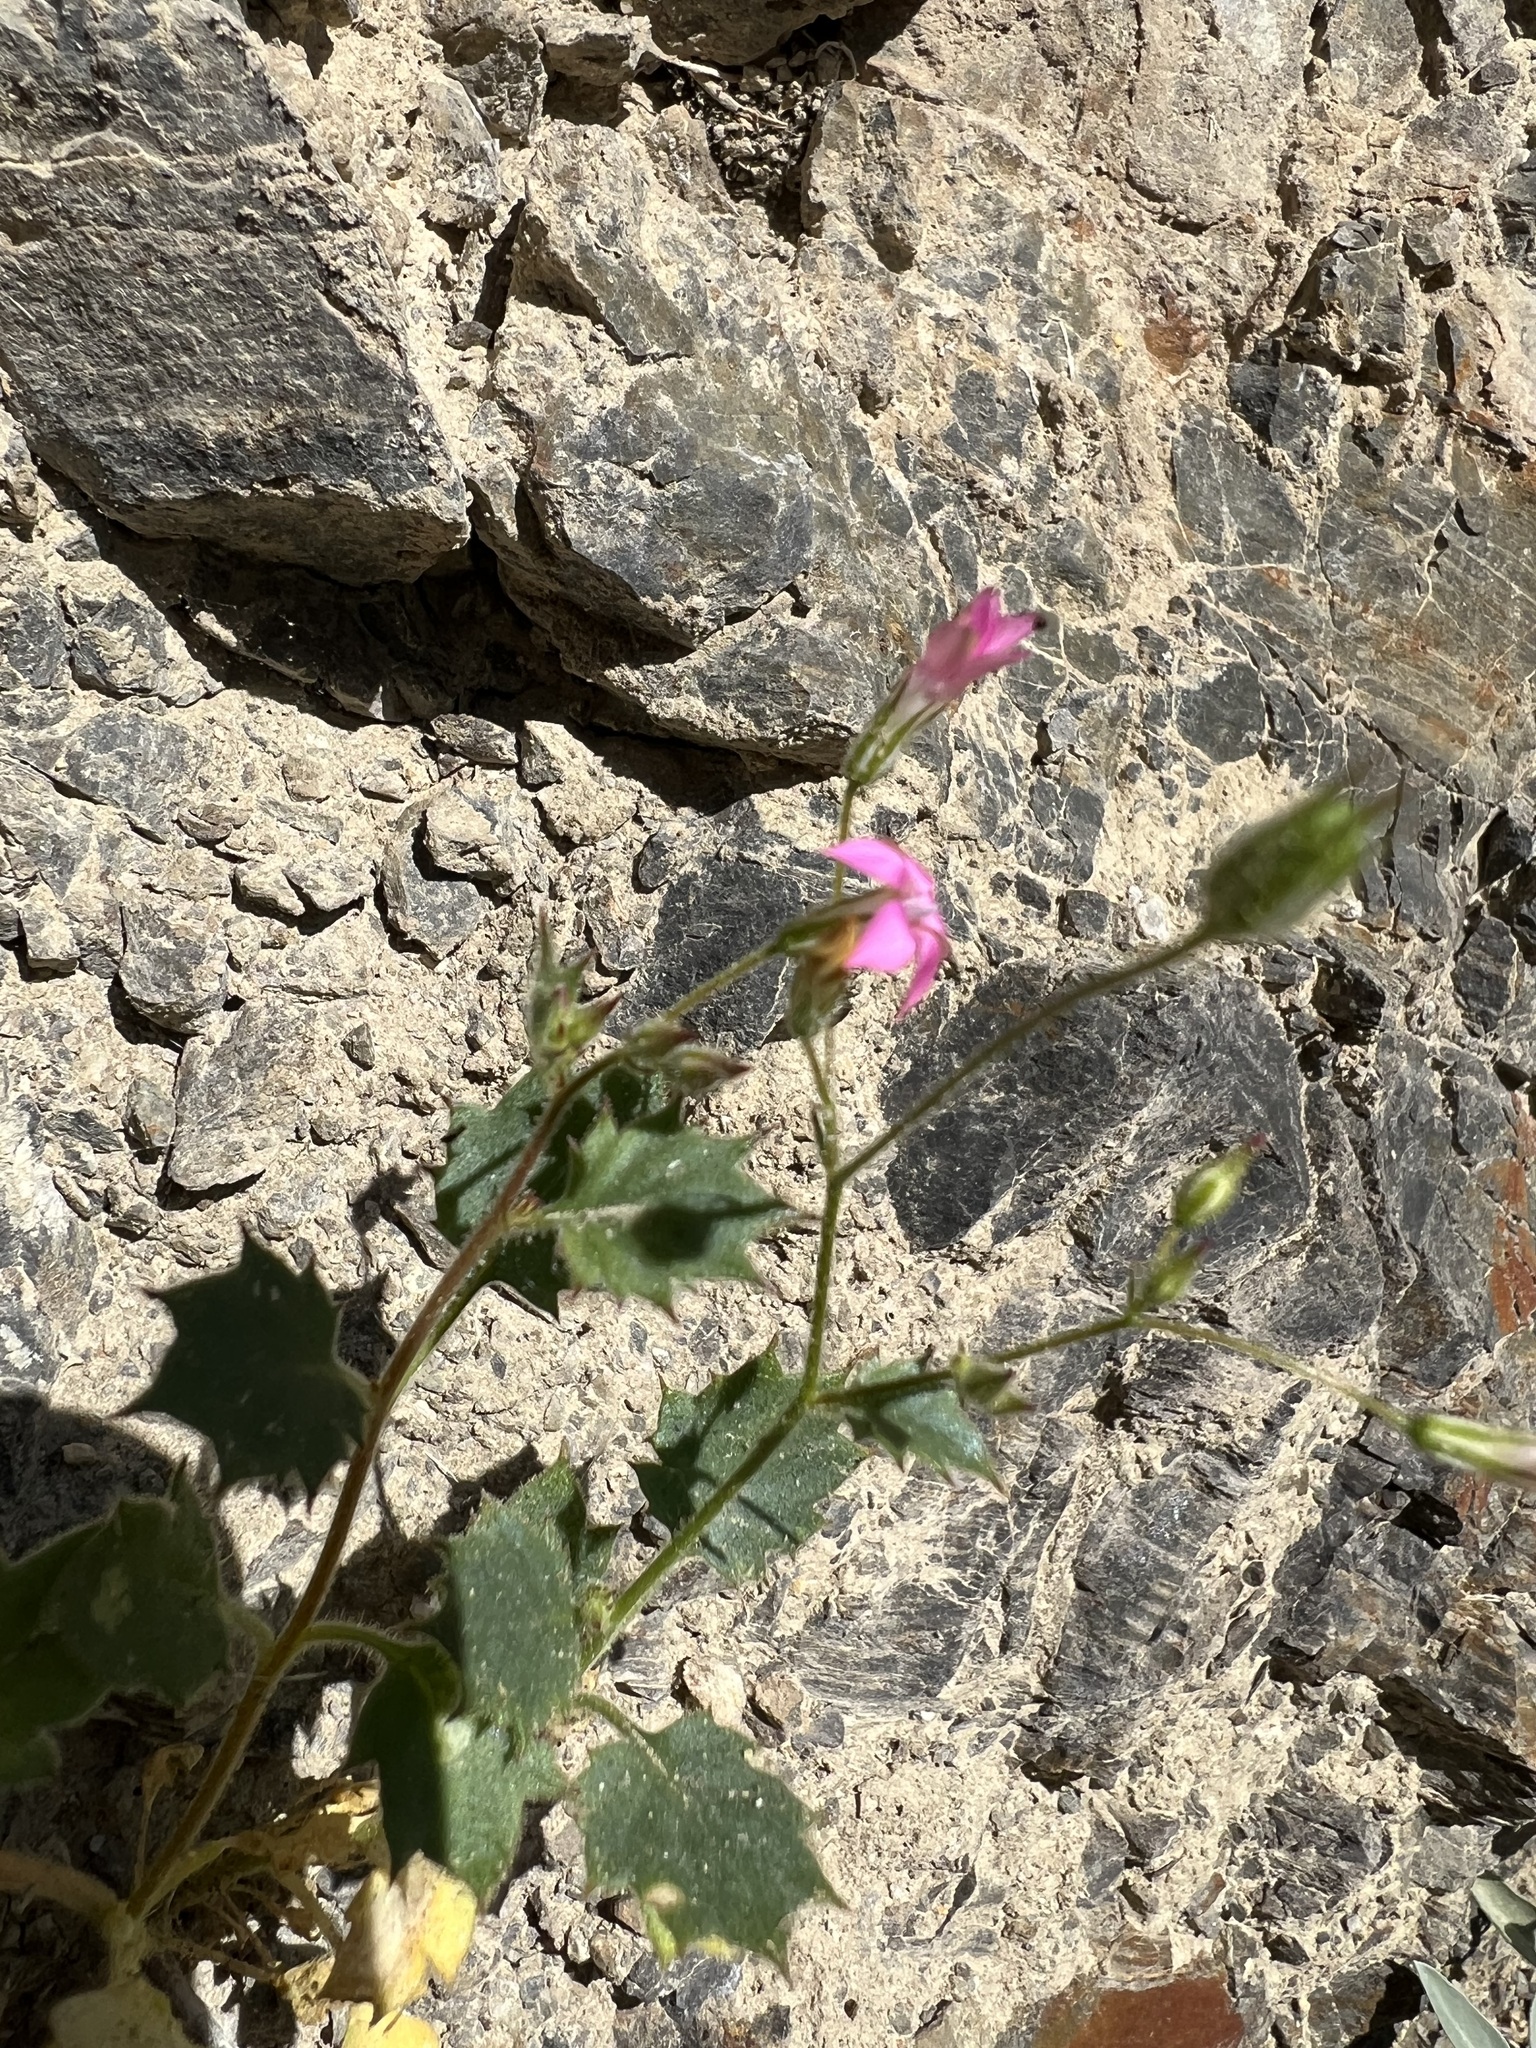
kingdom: Plantae
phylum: Tracheophyta
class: Magnoliopsida
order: Ericales
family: Polemoniaceae
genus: Aliciella
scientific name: Aliciella latifolia
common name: Broad-leaf gilia
